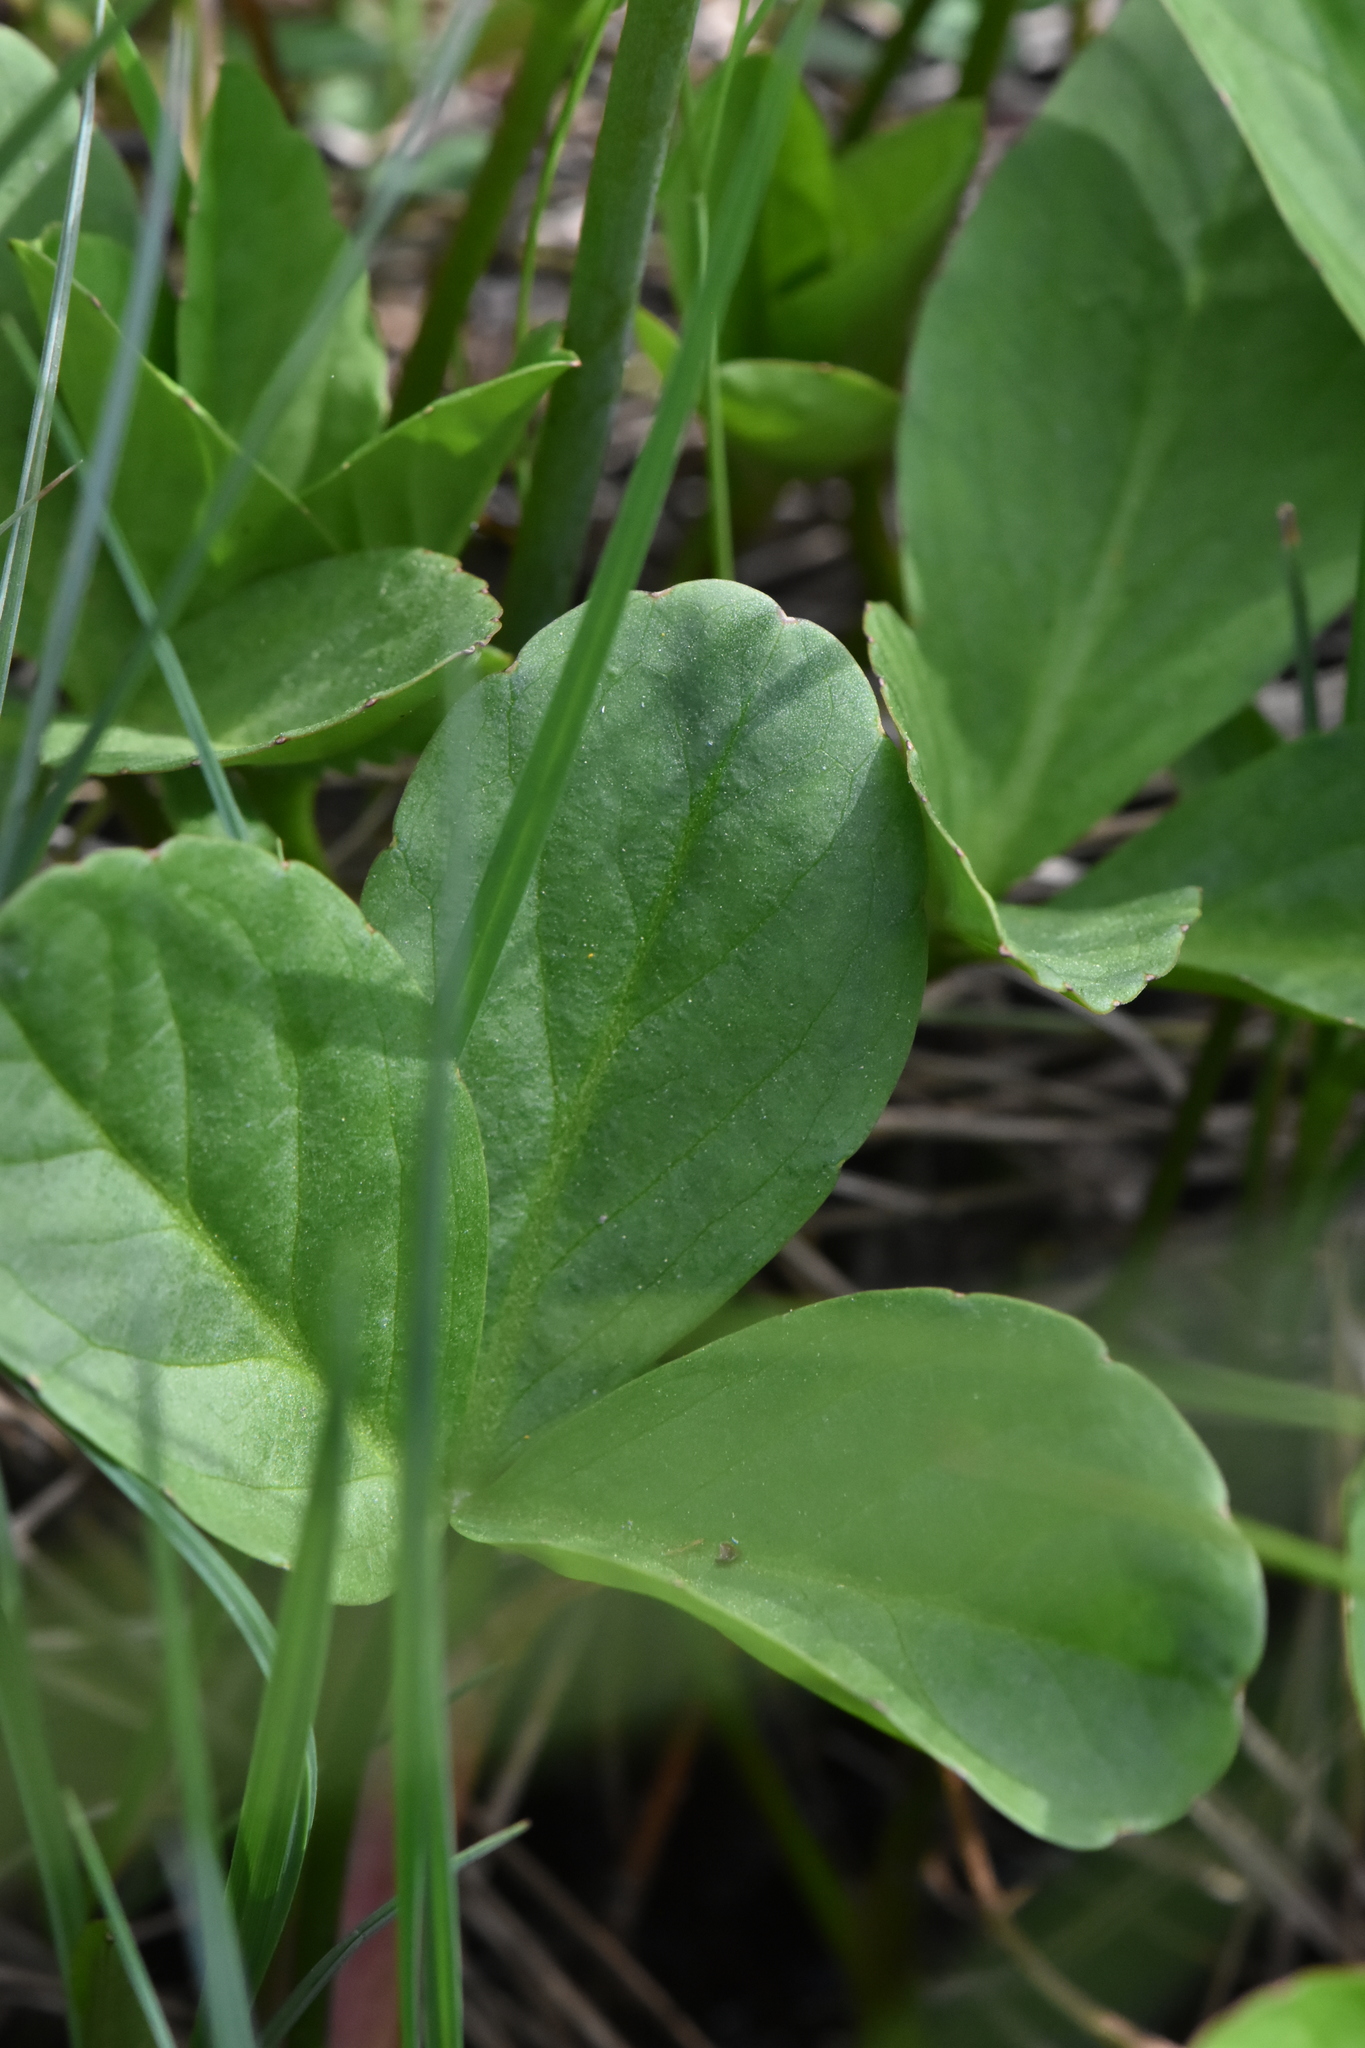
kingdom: Plantae
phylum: Tracheophyta
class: Magnoliopsida
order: Asterales
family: Menyanthaceae
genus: Menyanthes
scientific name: Menyanthes trifoliata
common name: Bogbean
